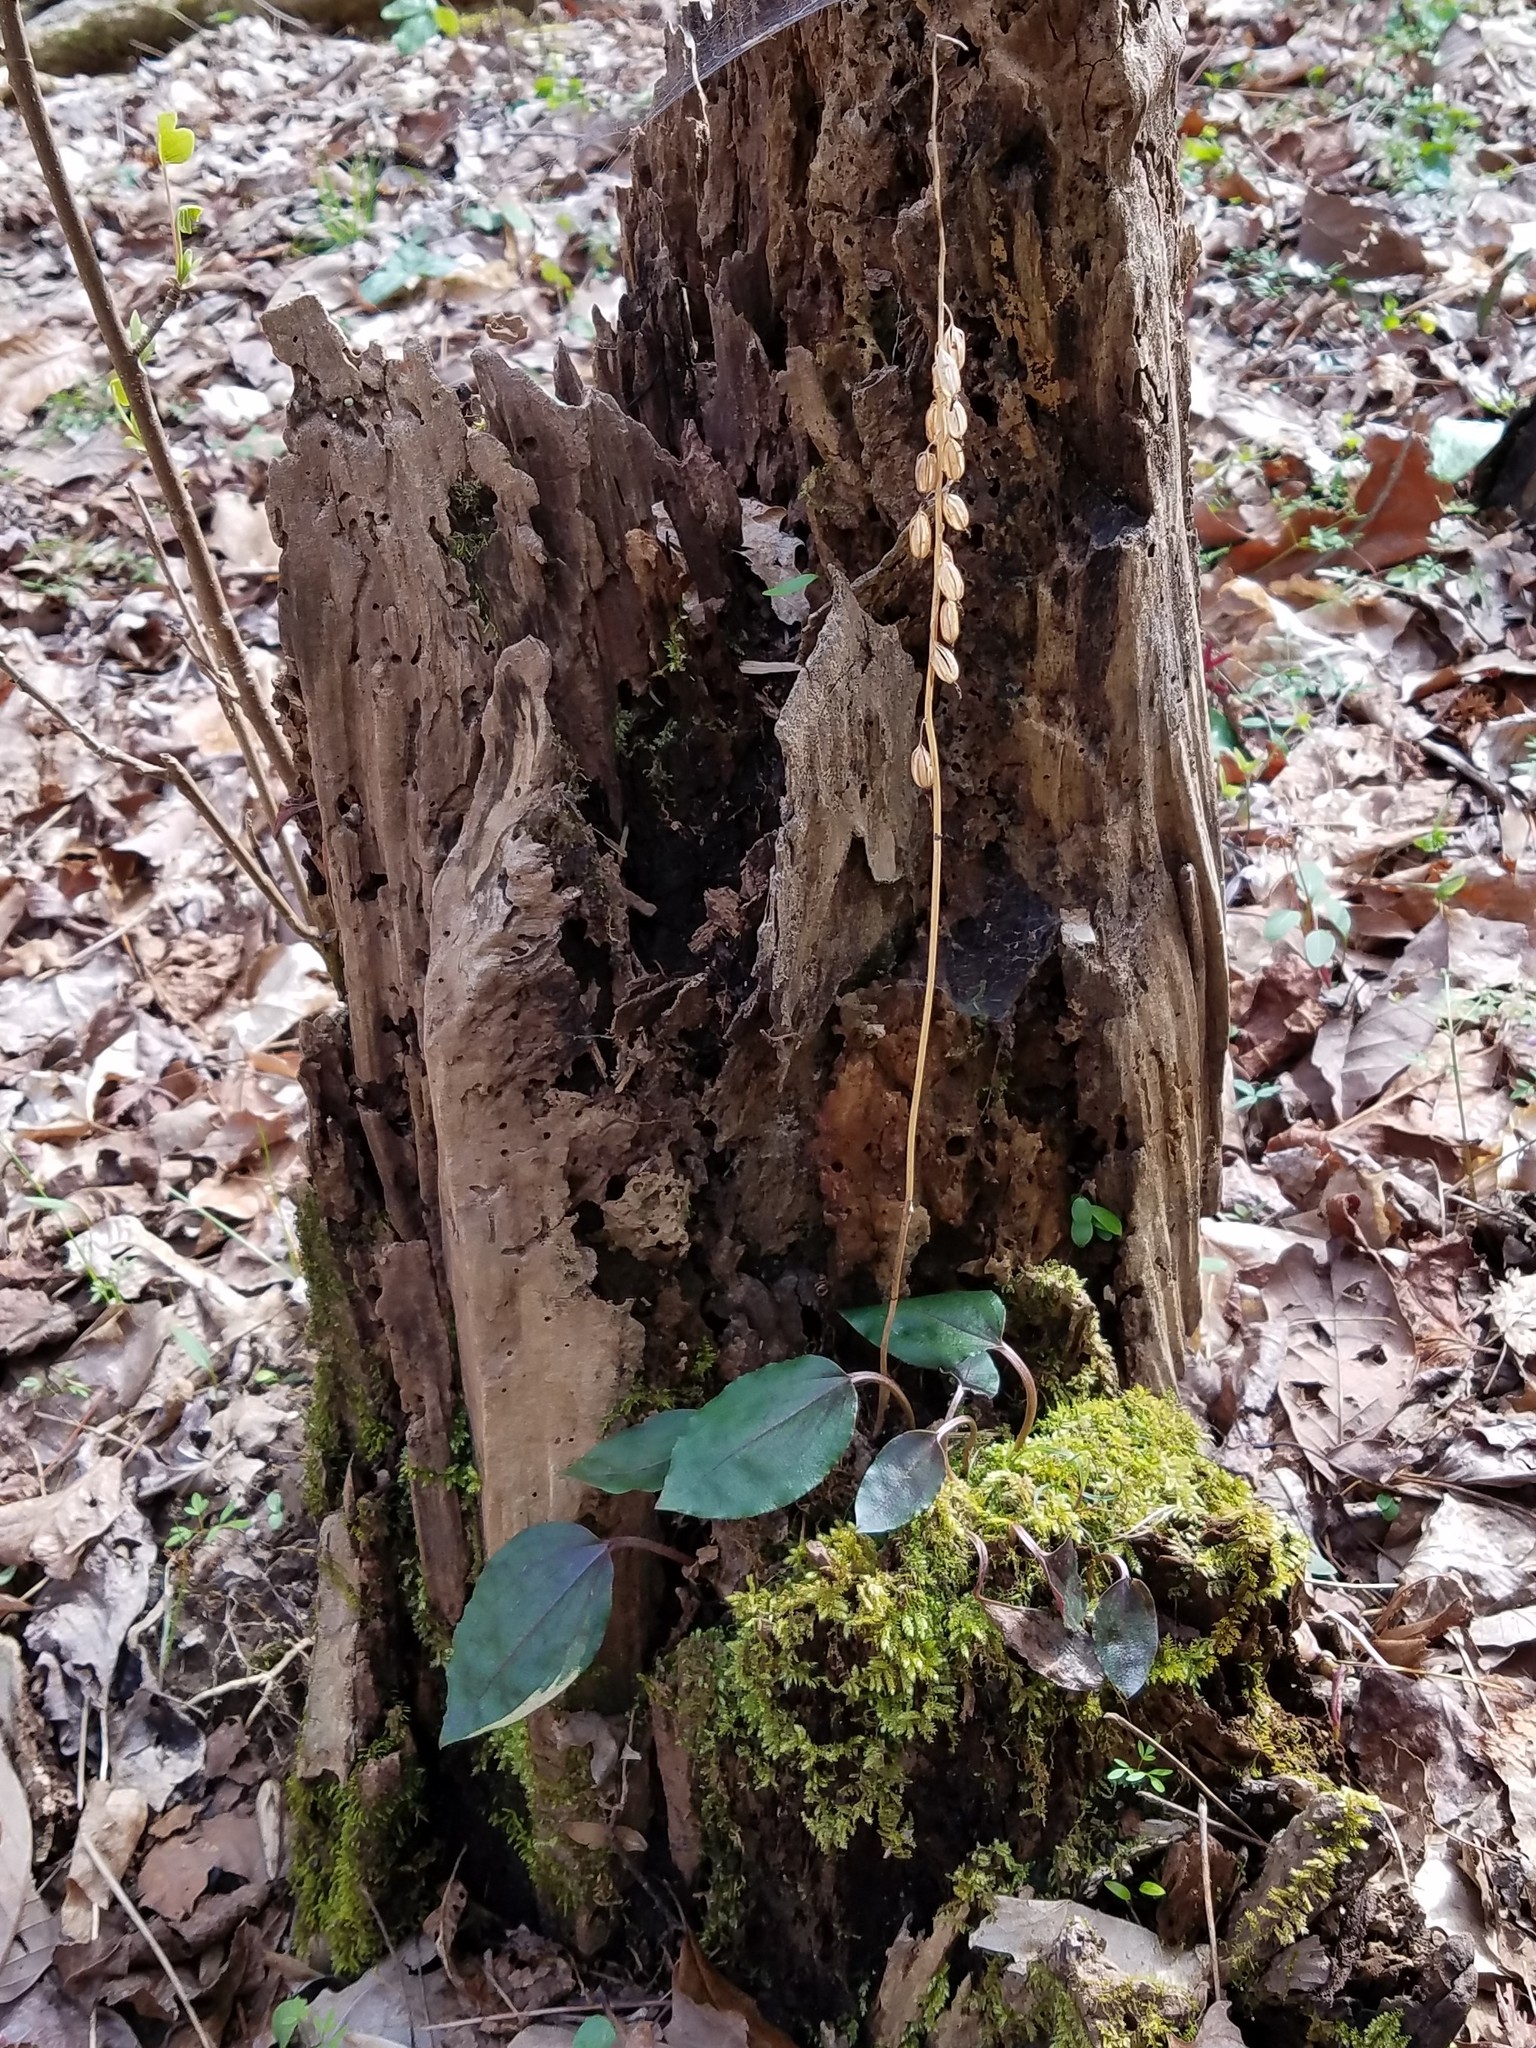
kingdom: Plantae
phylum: Tracheophyta
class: Liliopsida
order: Asparagales
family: Orchidaceae
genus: Tipularia
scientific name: Tipularia discolor
